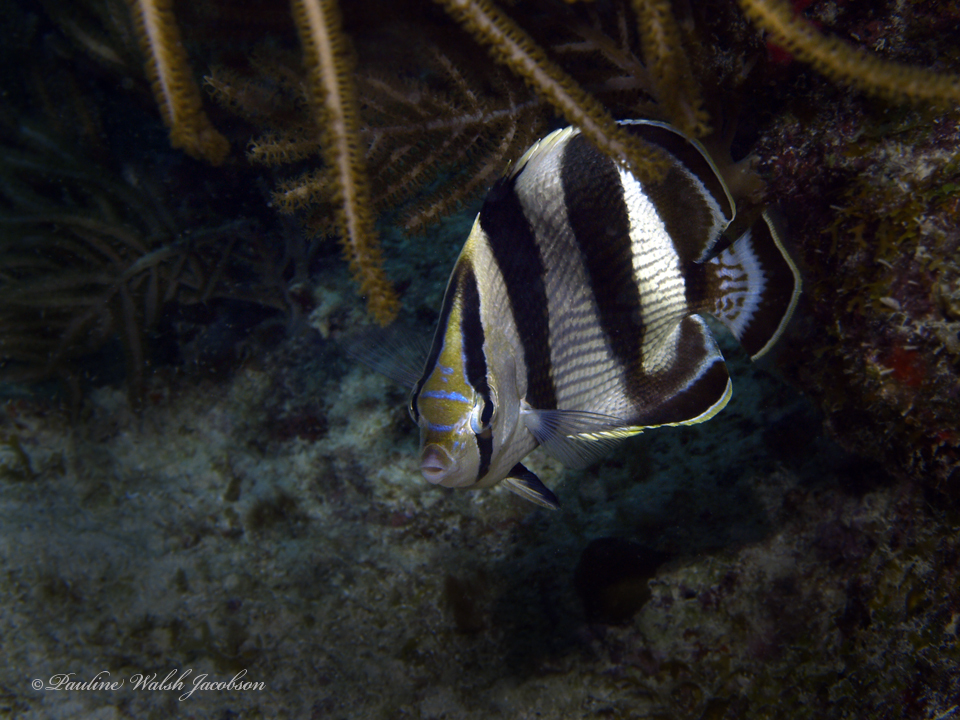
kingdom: Animalia
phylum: Chordata
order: Perciformes
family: Chaetodontidae
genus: Chaetodon
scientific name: Chaetodon striatus
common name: Banded butterflyfish
